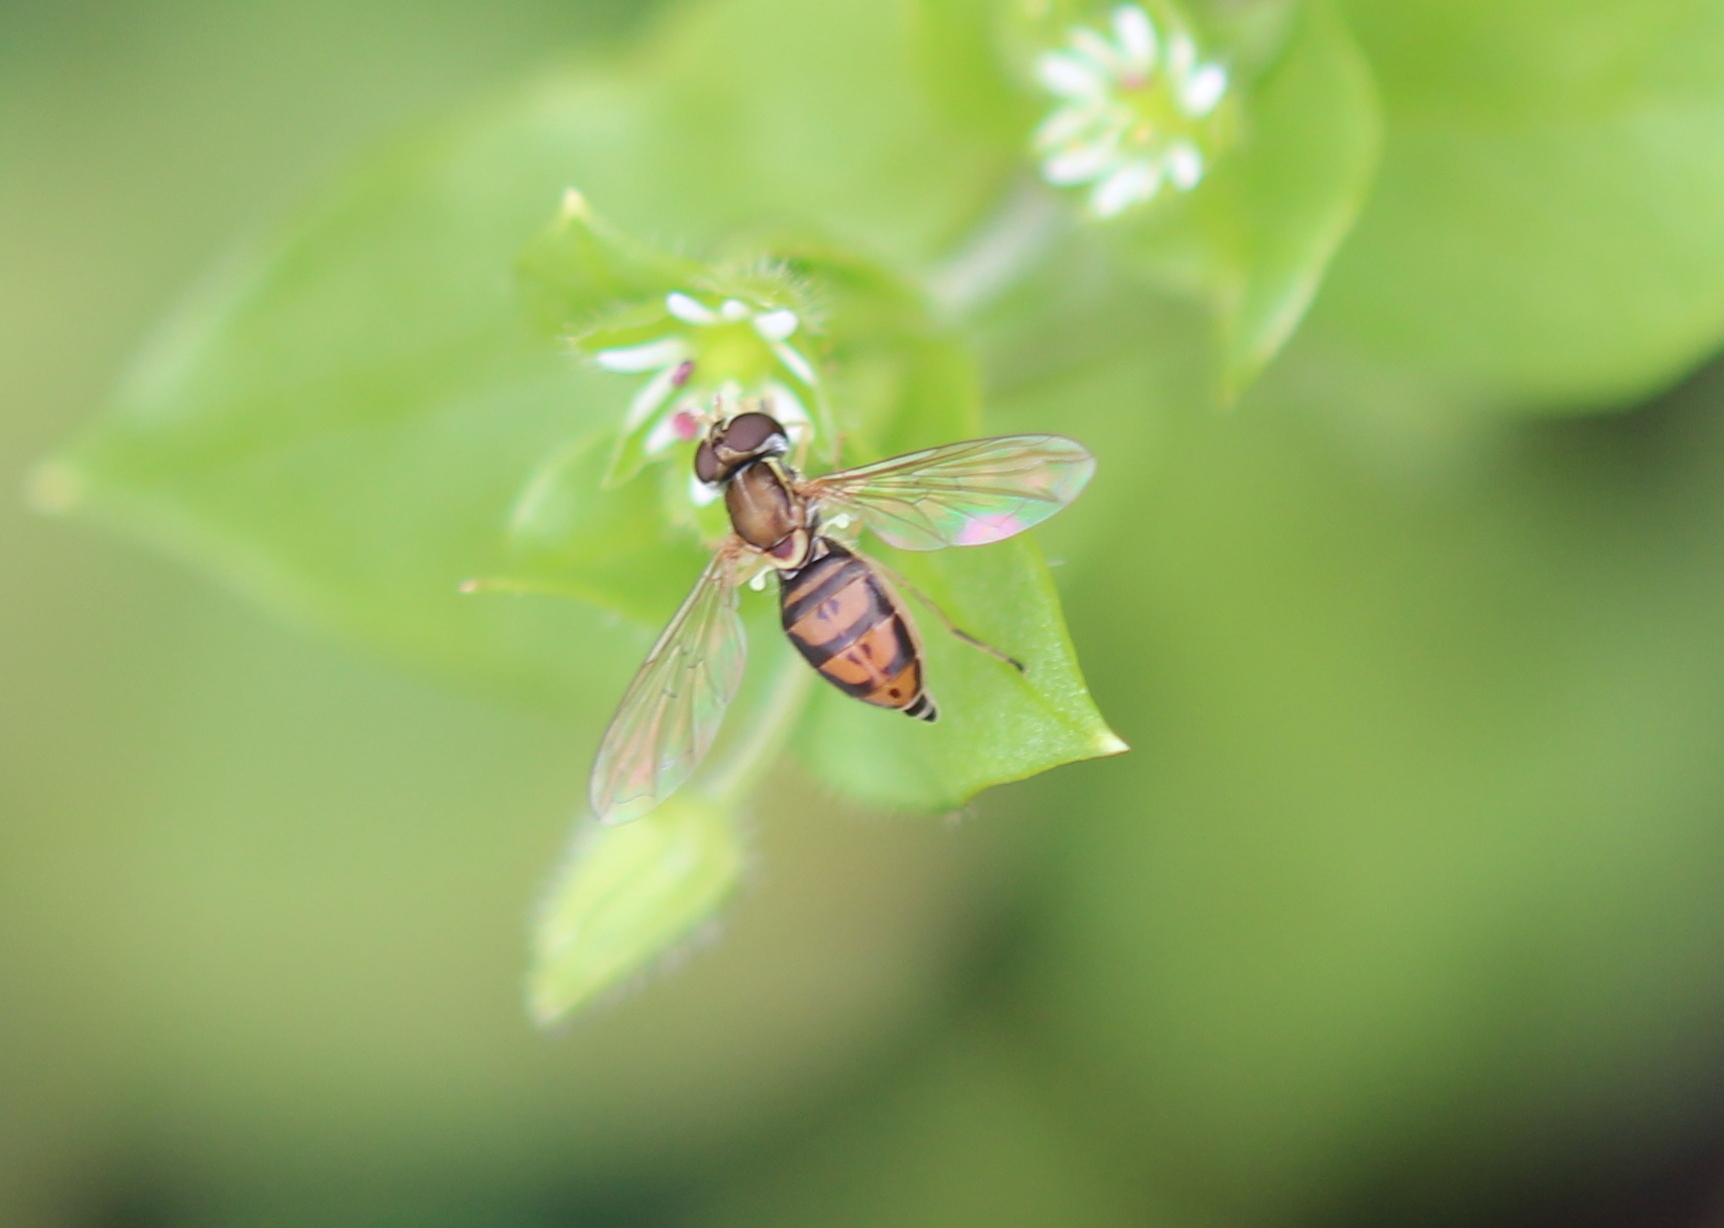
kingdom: Animalia
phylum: Arthropoda
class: Insecta
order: Diptera
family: Syrphidae
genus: Toxomerus
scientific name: Toxomerus marginatus
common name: Syrphid fly
